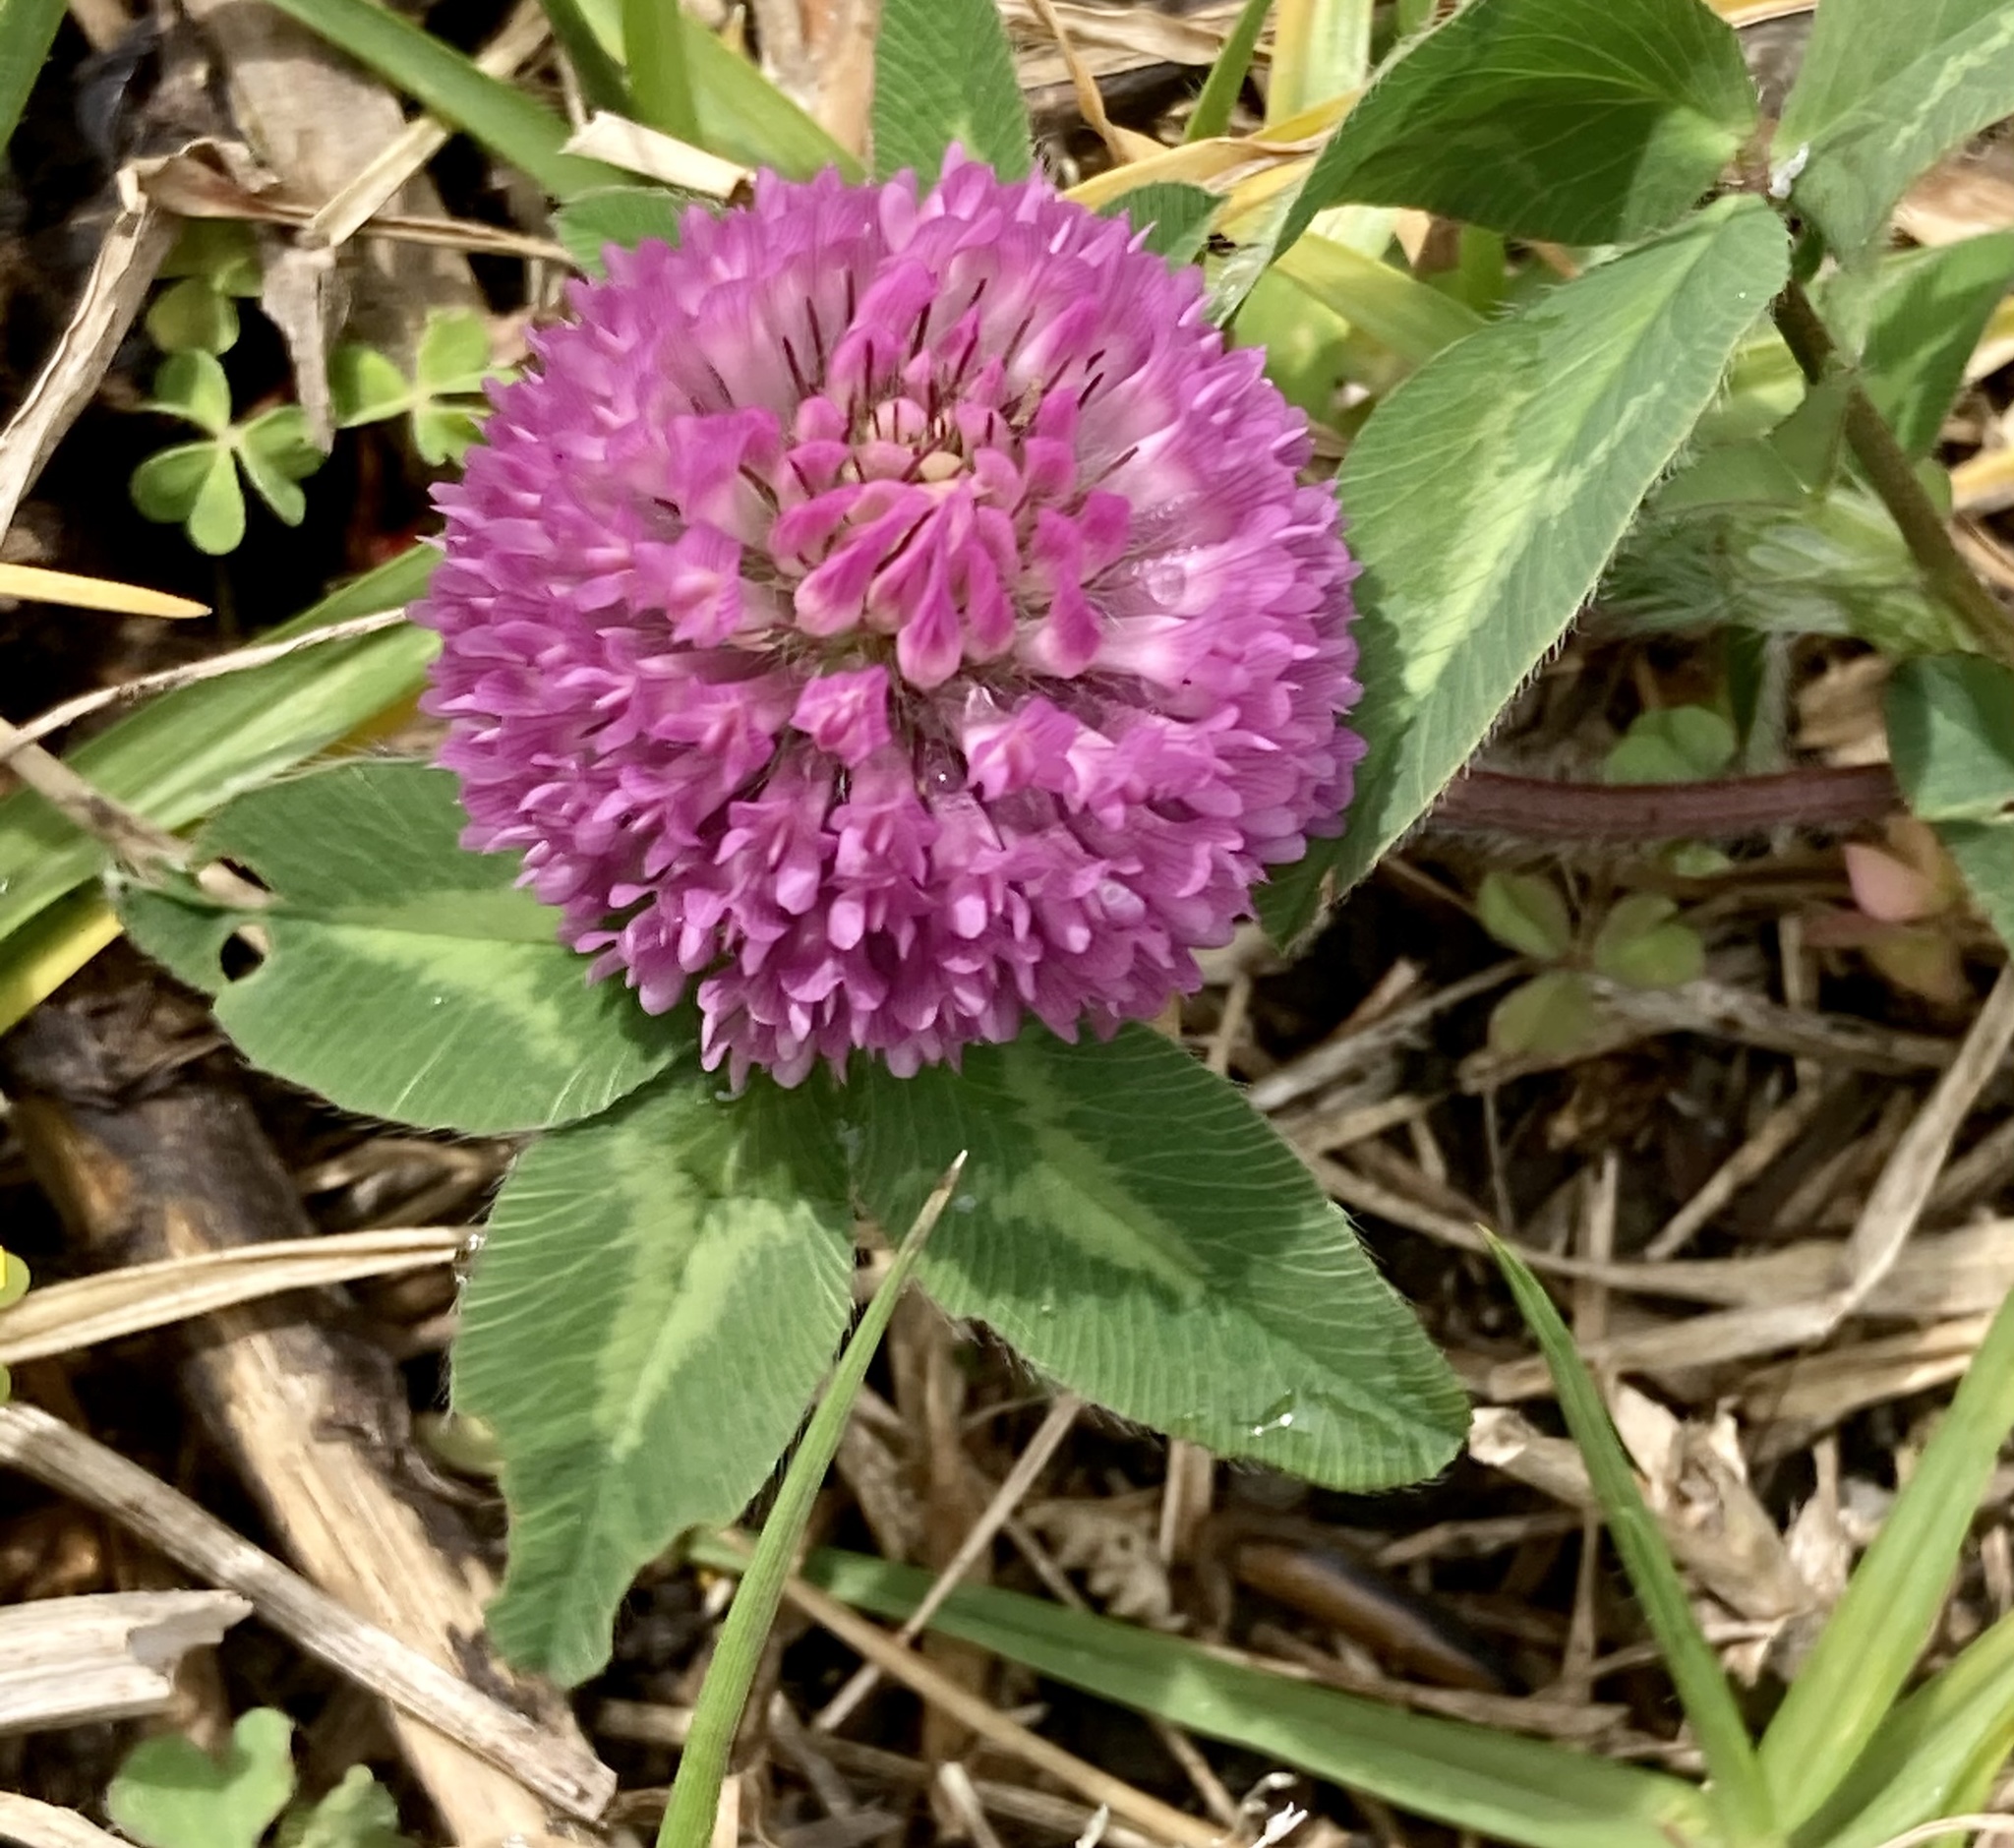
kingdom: Plantae
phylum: Tracheophyta
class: Magnoliopsida
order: Fabales
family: Fabaceae
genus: Trifolium
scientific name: Trifolium pratense
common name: Red clover
